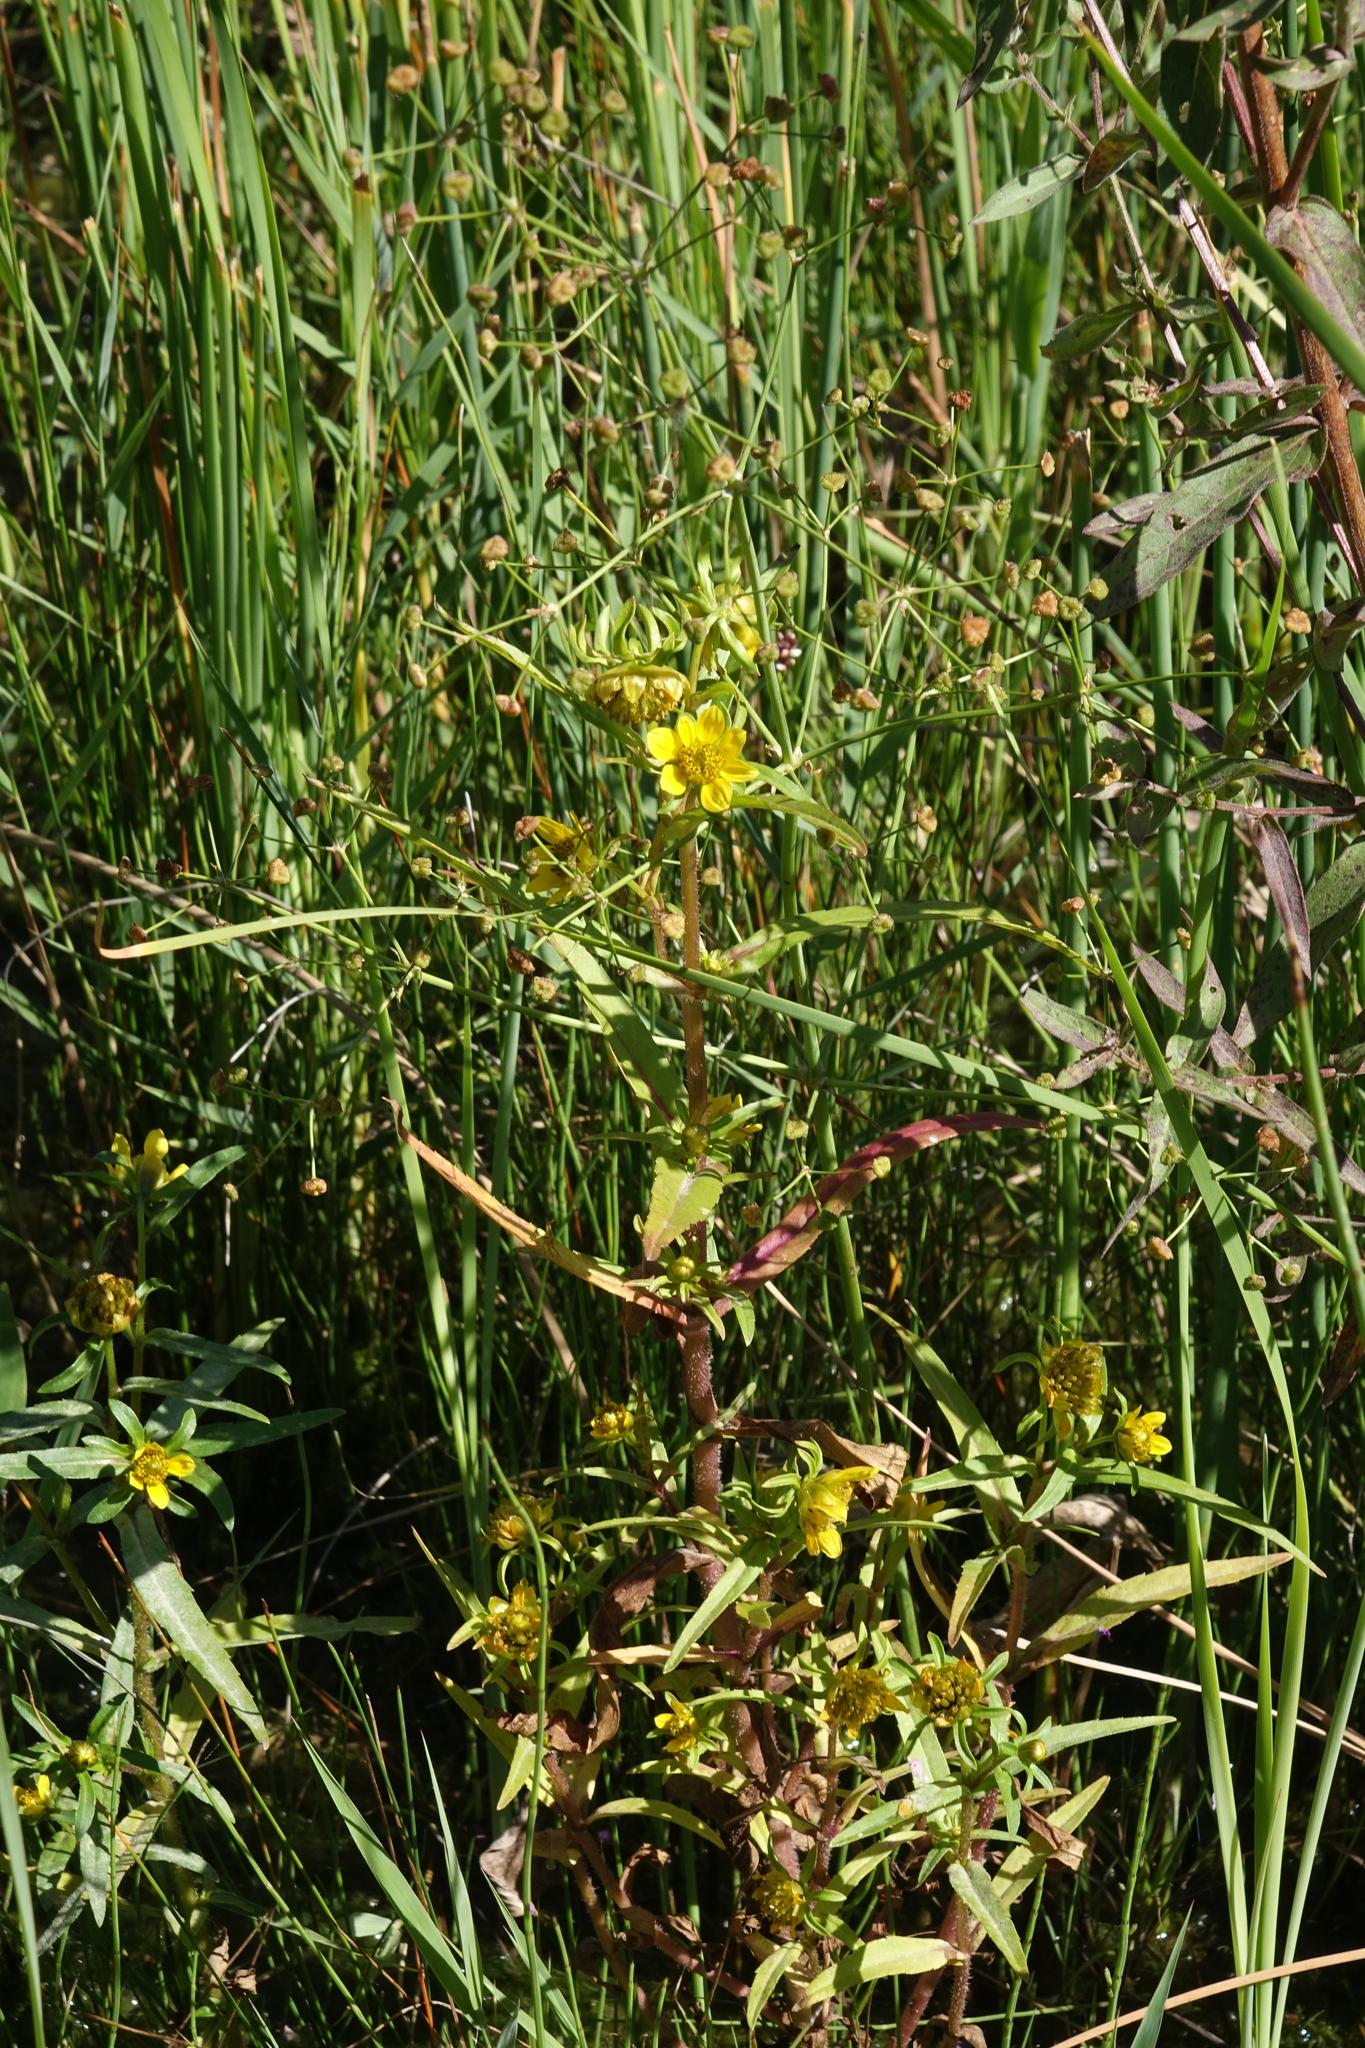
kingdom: Plantae
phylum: Tracheophyta
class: Magnoliopsida
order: Asterales
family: Asteraceae
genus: Bidens
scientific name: Bidens cernua
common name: Nodding bur-marigold
